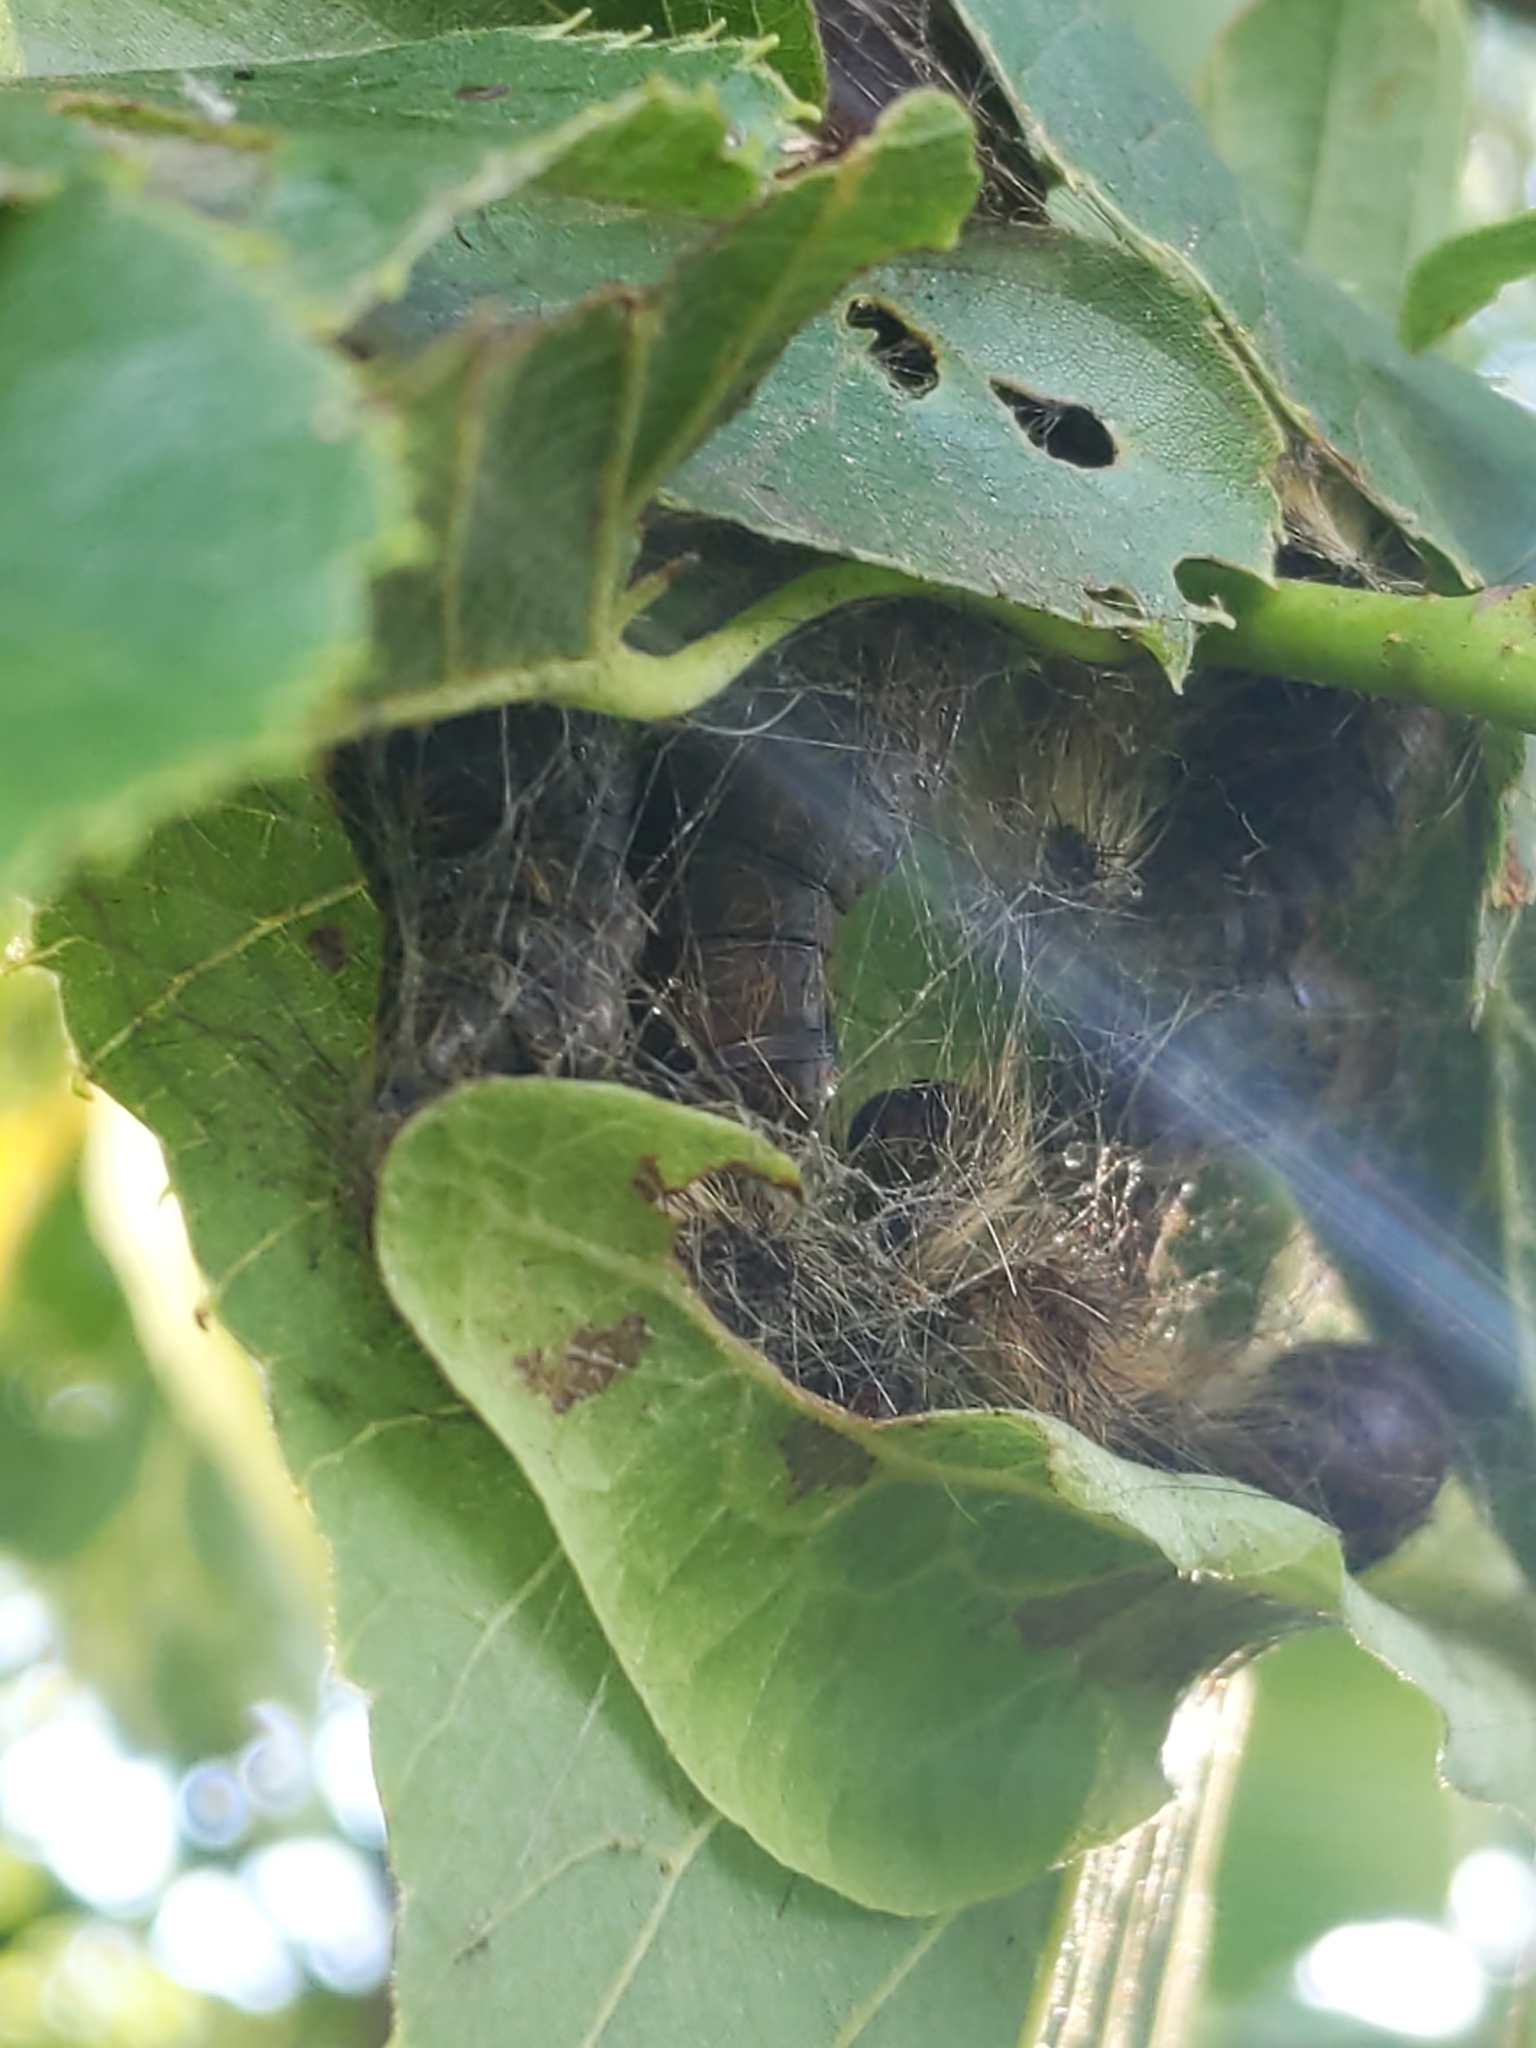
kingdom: Animalia
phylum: Arthropoda
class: Insecta
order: Lepidoptera
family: Erebidae
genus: Lymantria
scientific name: Lymantria dispar
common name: Gypsy moth
